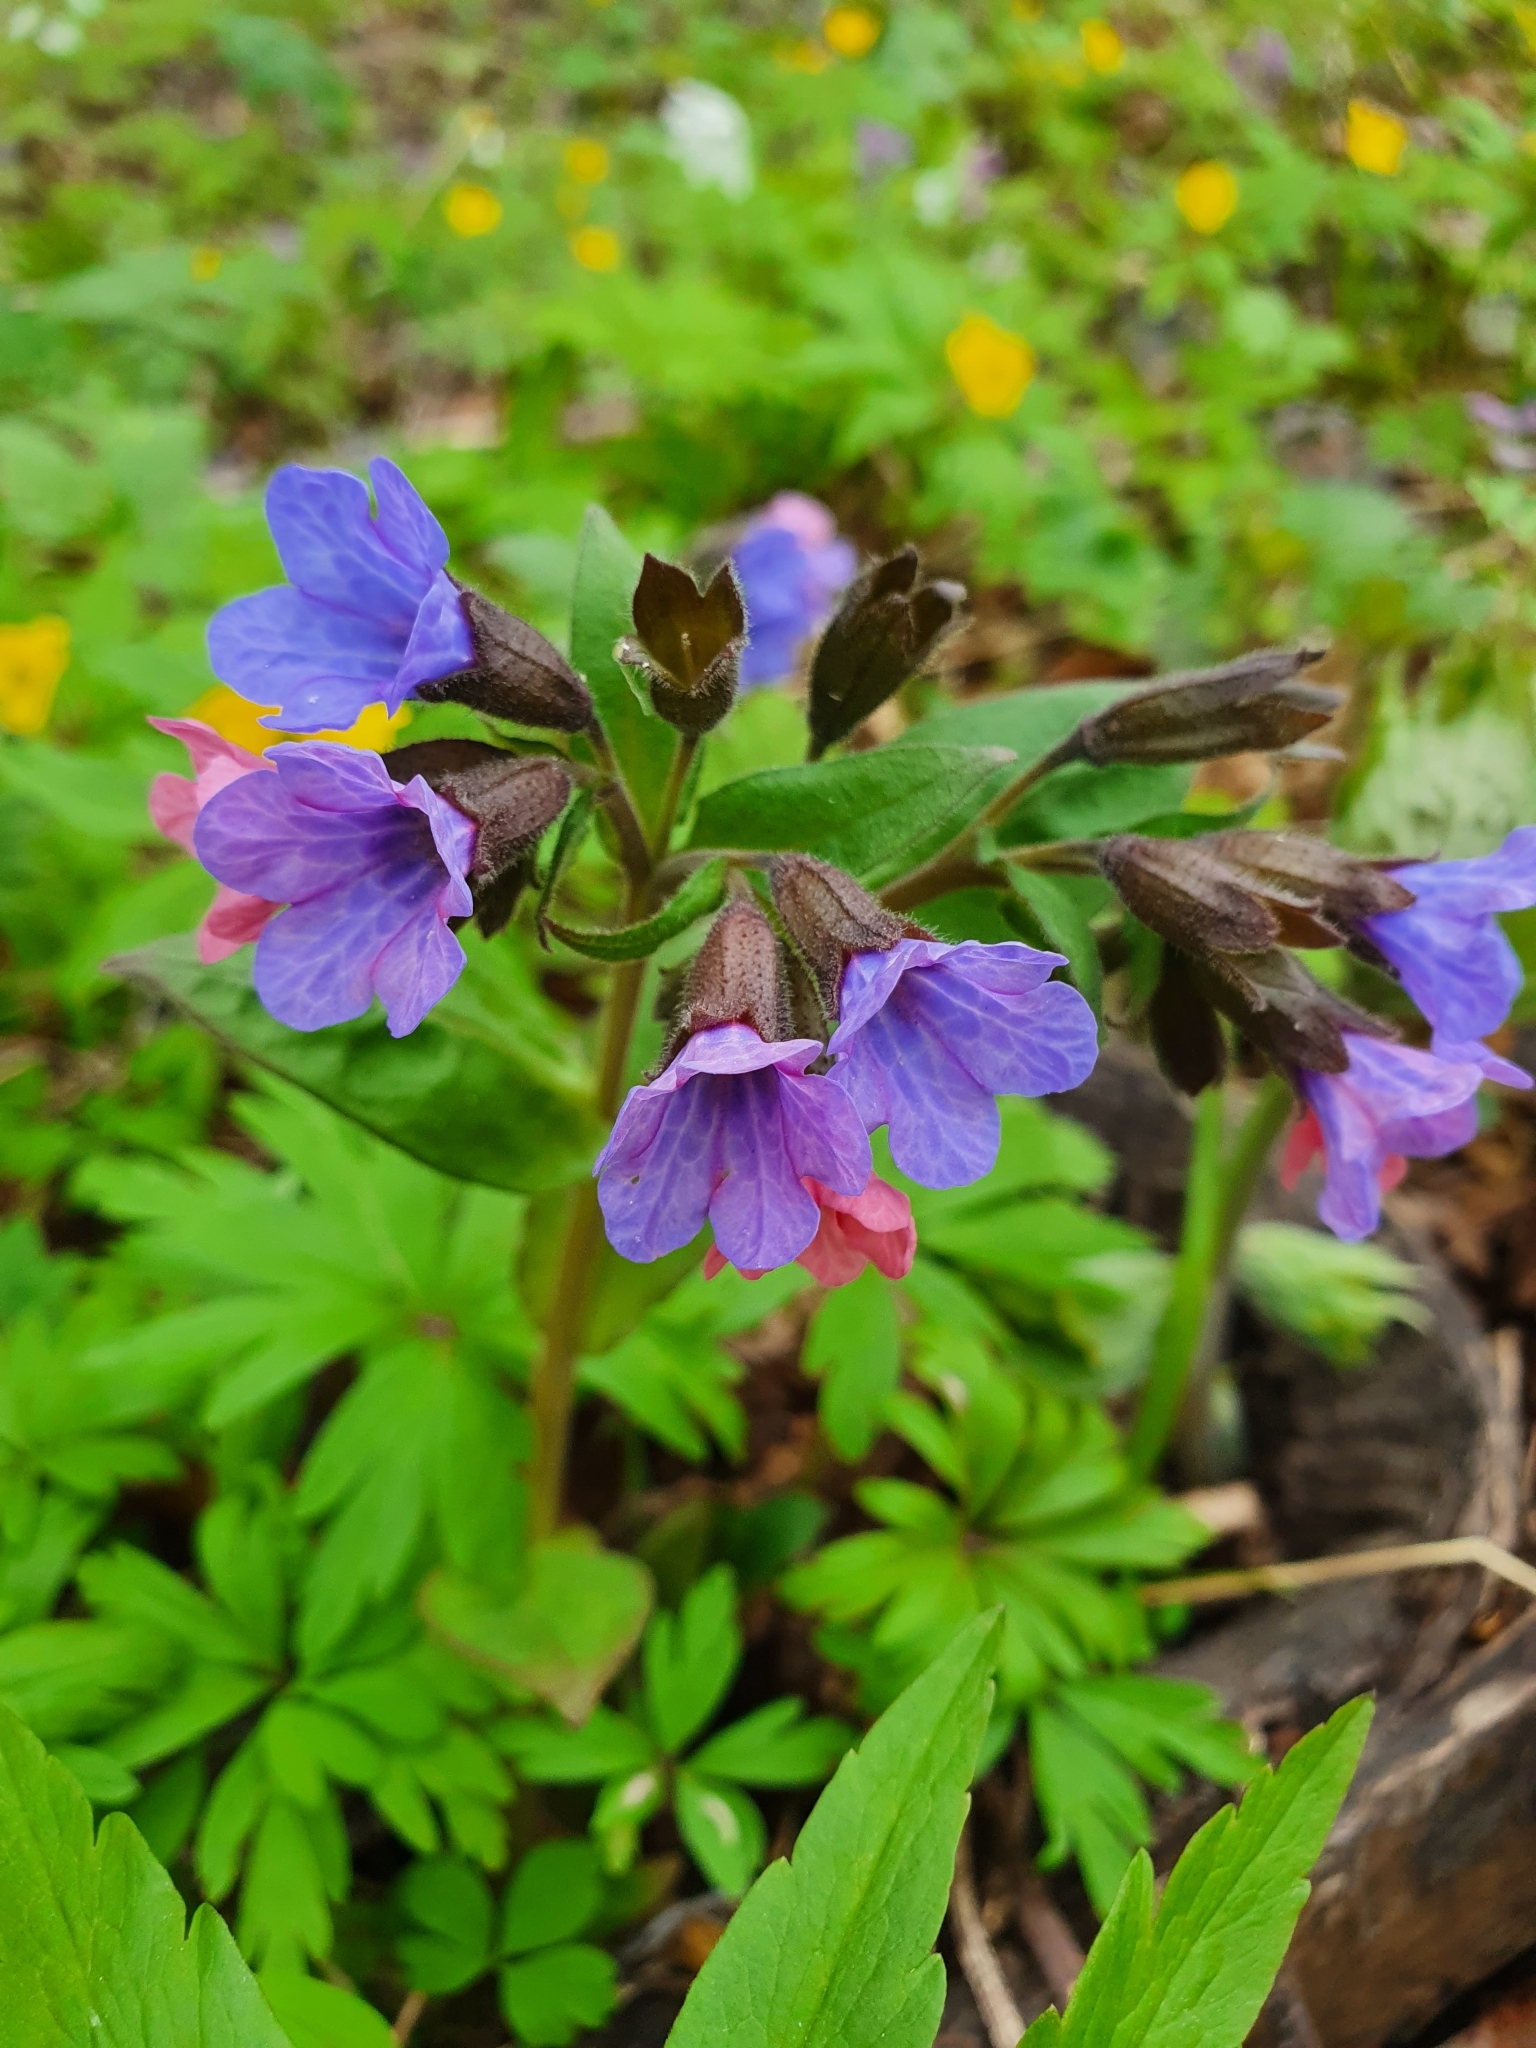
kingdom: Plantae
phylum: Tracheophyta
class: Magnoliopsida
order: Boraginales
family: Boraginaceae
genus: Pulmonaria
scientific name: Pulmonaria obscura
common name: Suffolk lungwort
